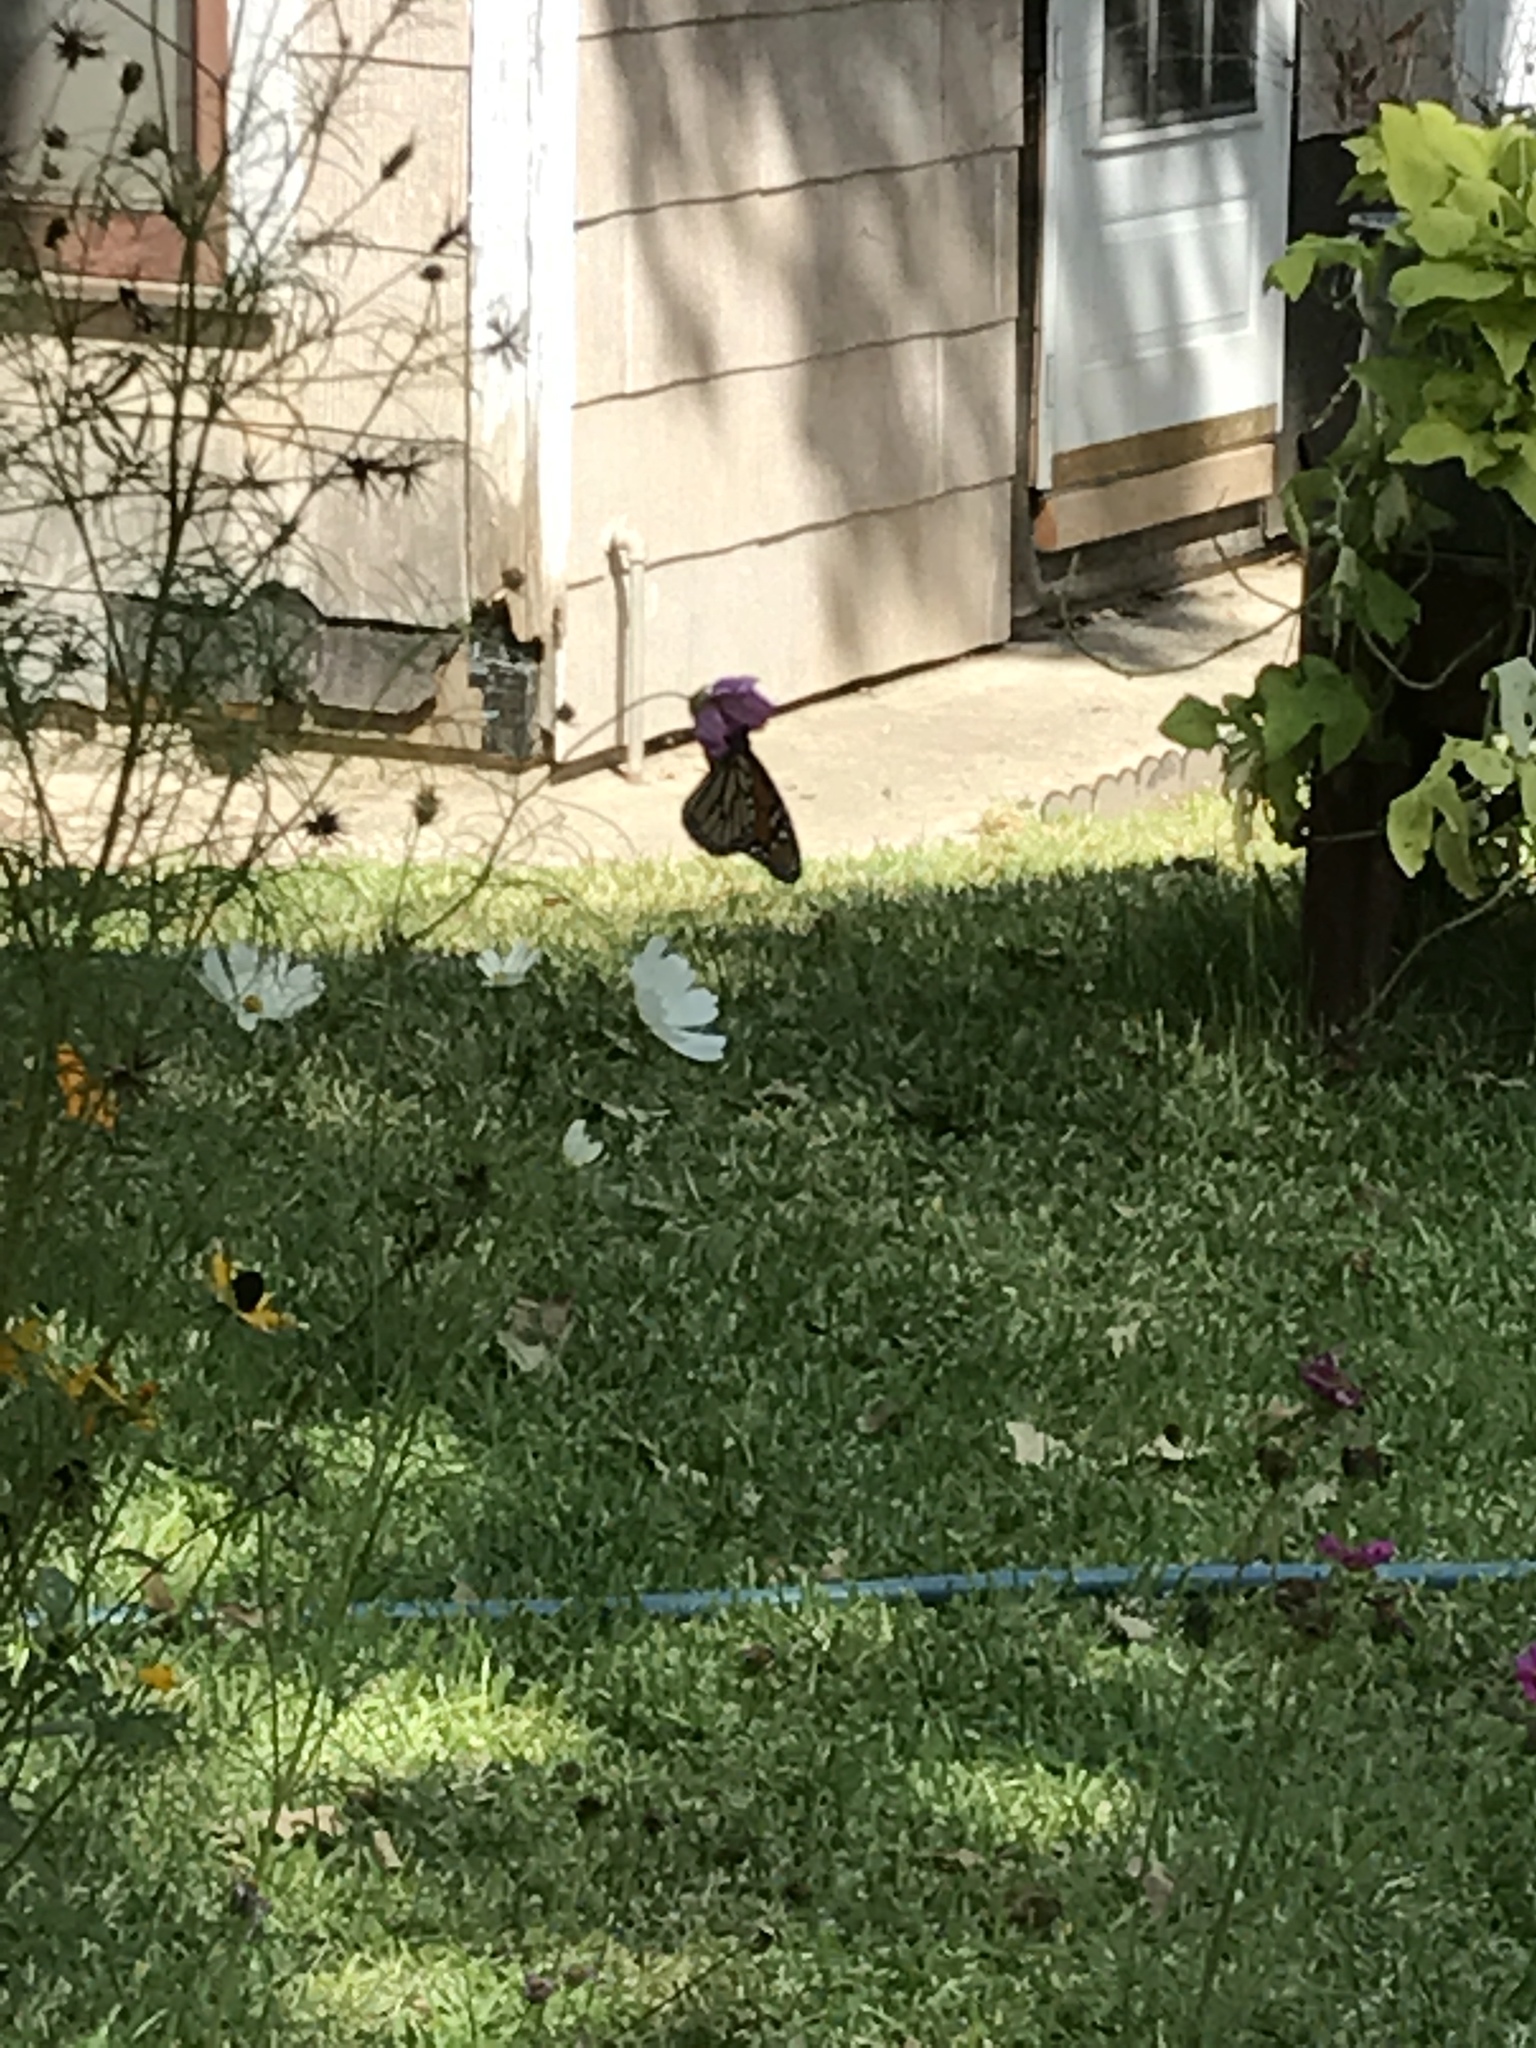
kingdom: Animalia
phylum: Arthropoda
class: Insecta
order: Lepidoptera
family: Nymphalidae
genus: Danaus
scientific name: Danaus plexippus
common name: Monarch
